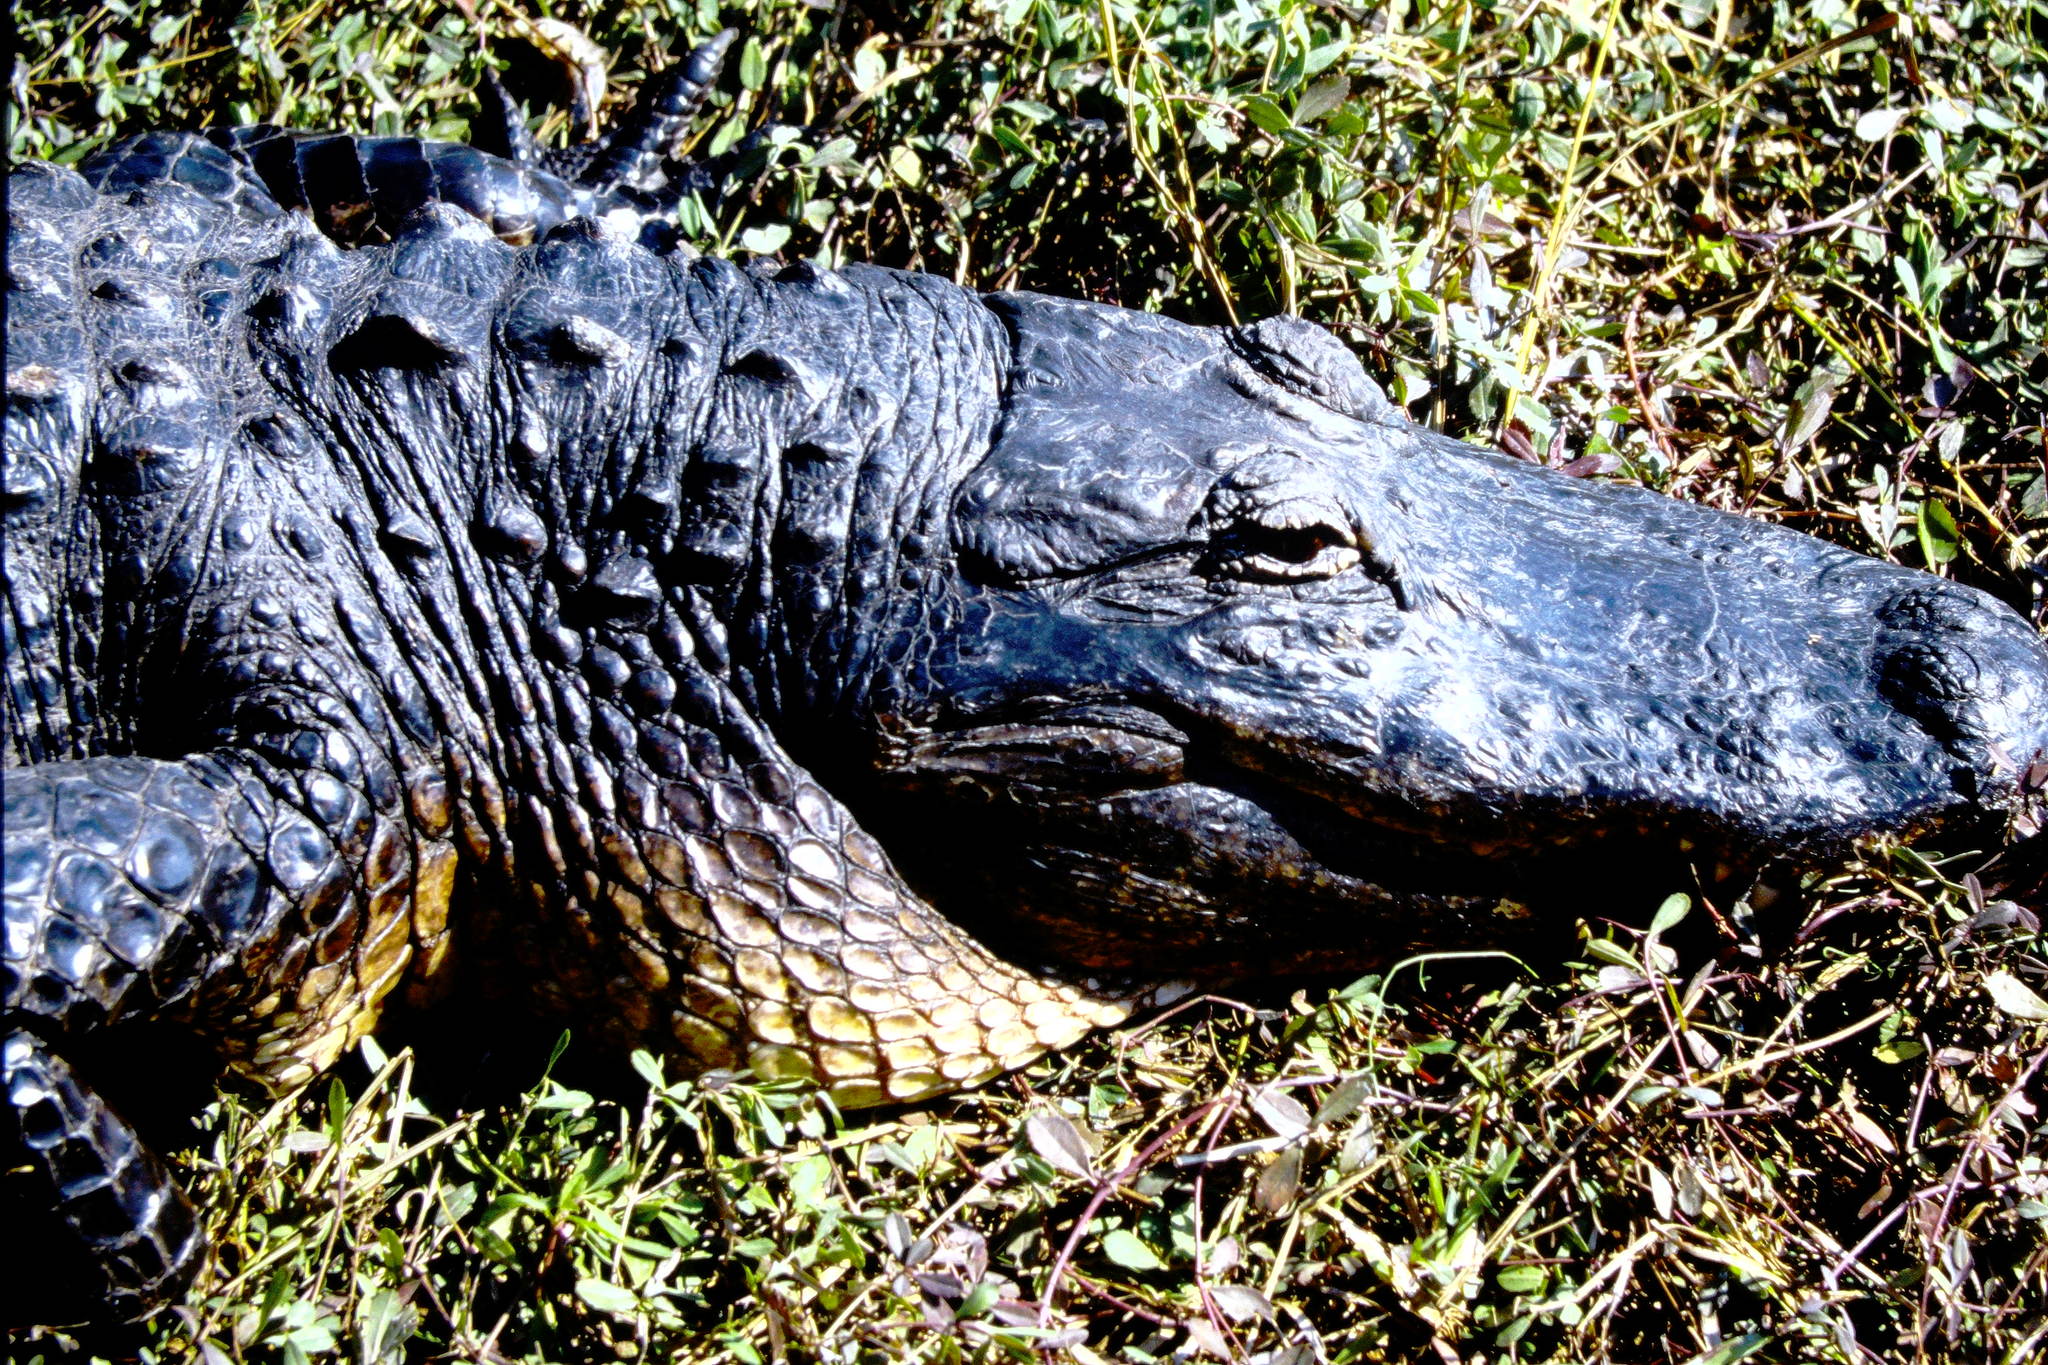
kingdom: Animalia
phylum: Chordata
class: Crocodylia
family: Alligatoridae
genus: Alligator
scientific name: Alligator mississippiensis
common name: American alligator
